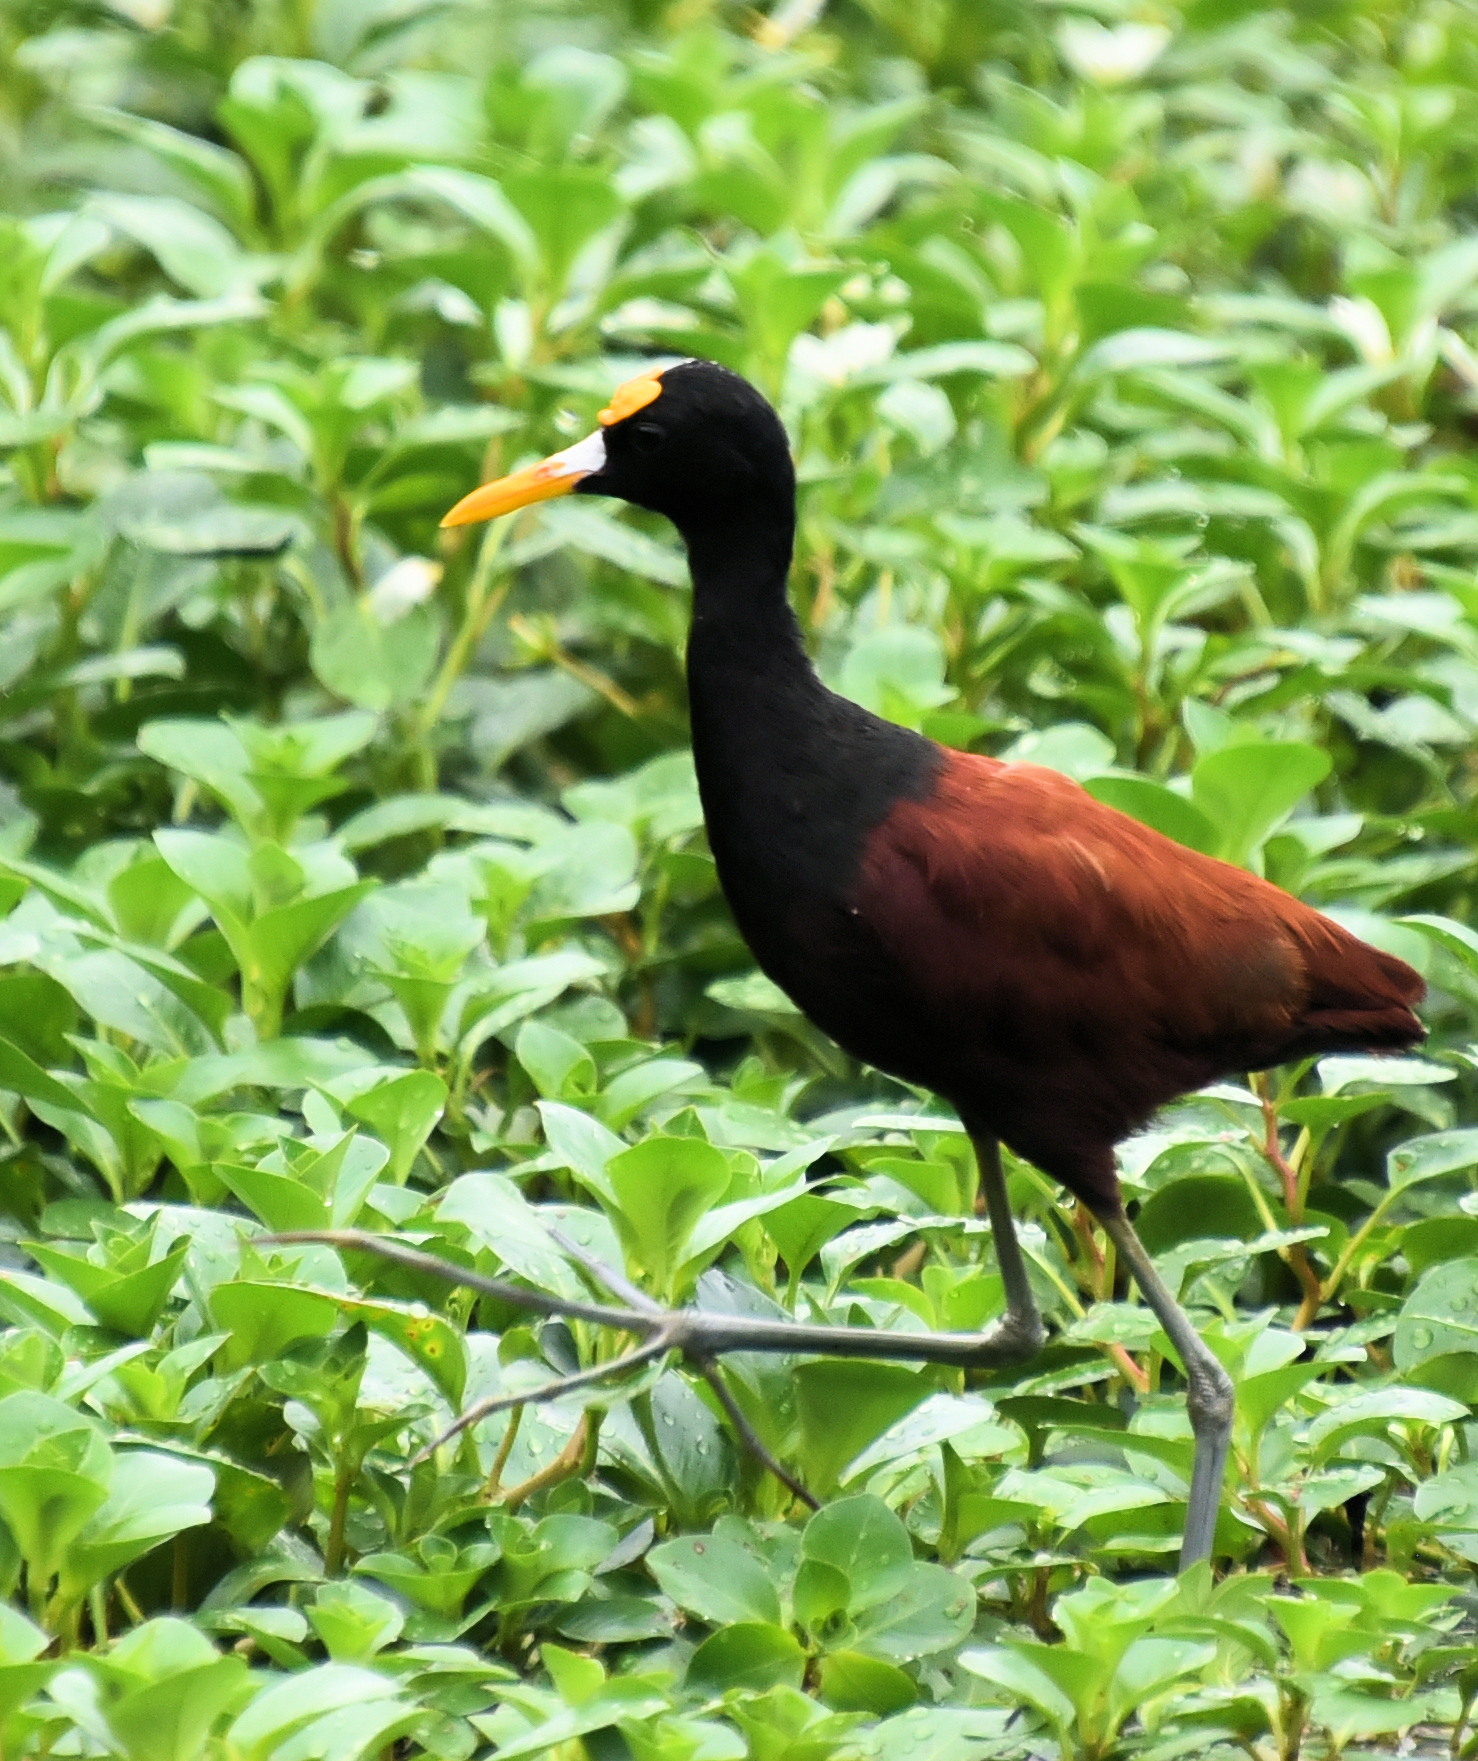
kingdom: Animalia
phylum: Chordata
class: Aves
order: Charadriiformes
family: Jacanidae
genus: Jacana
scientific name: Jacana spinosa
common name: Northern jacana
